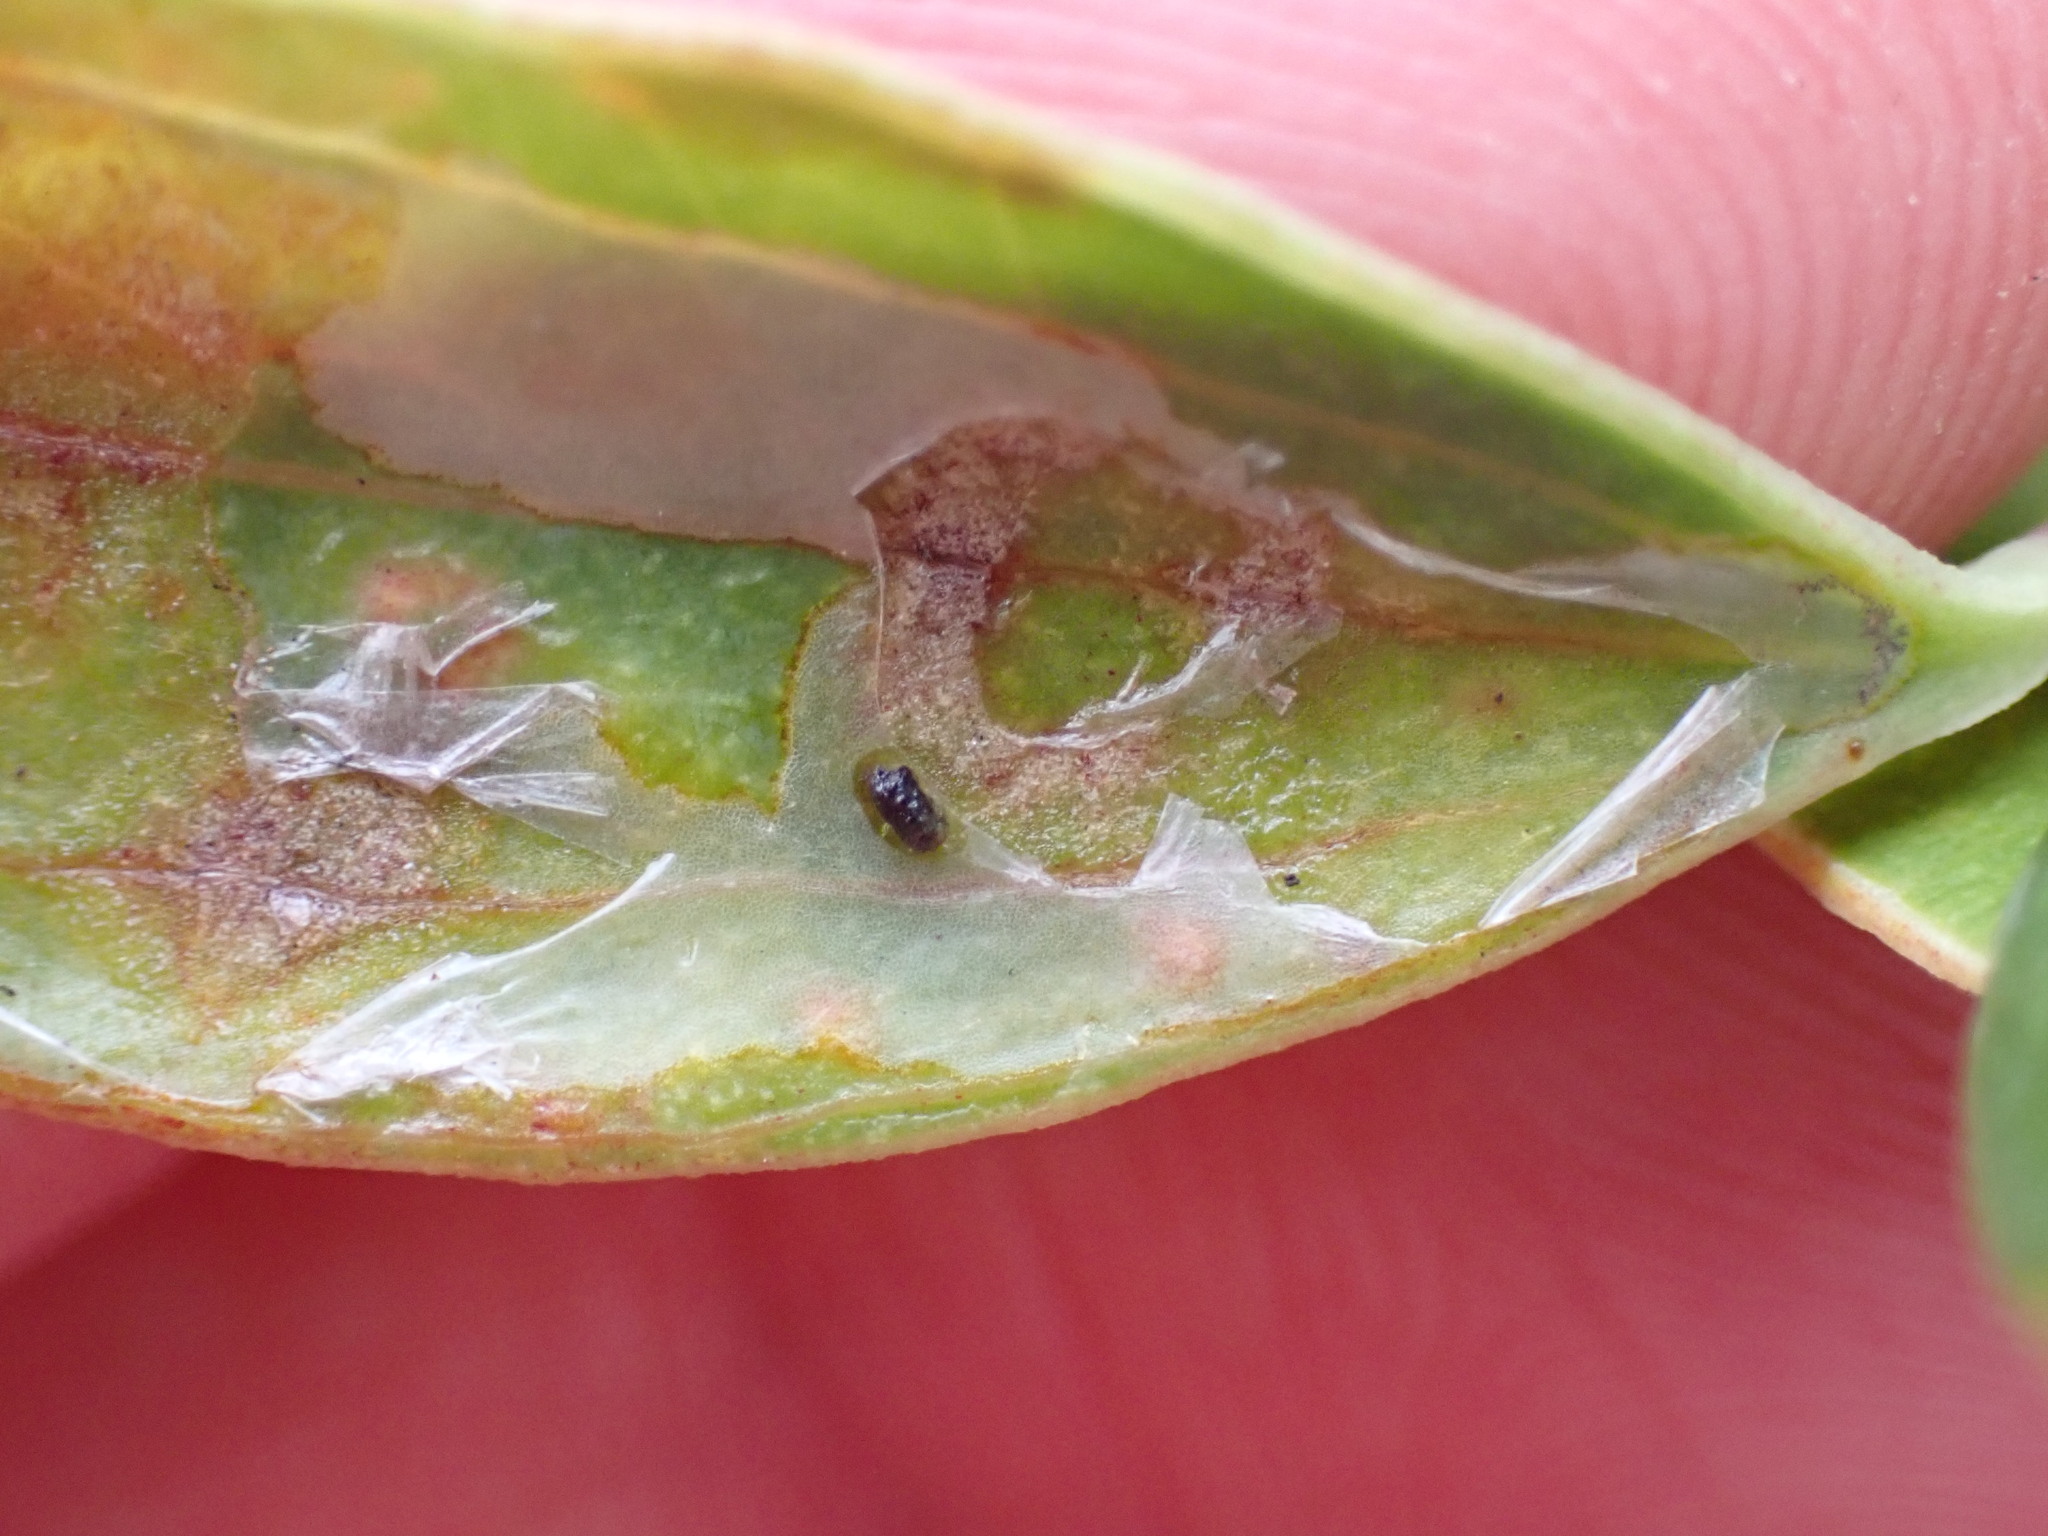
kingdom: Animalia
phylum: Arthropoda
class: Insecta
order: Diptera
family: Agromyzidae
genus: Liriomyza
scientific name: Liriomyza schmidti
